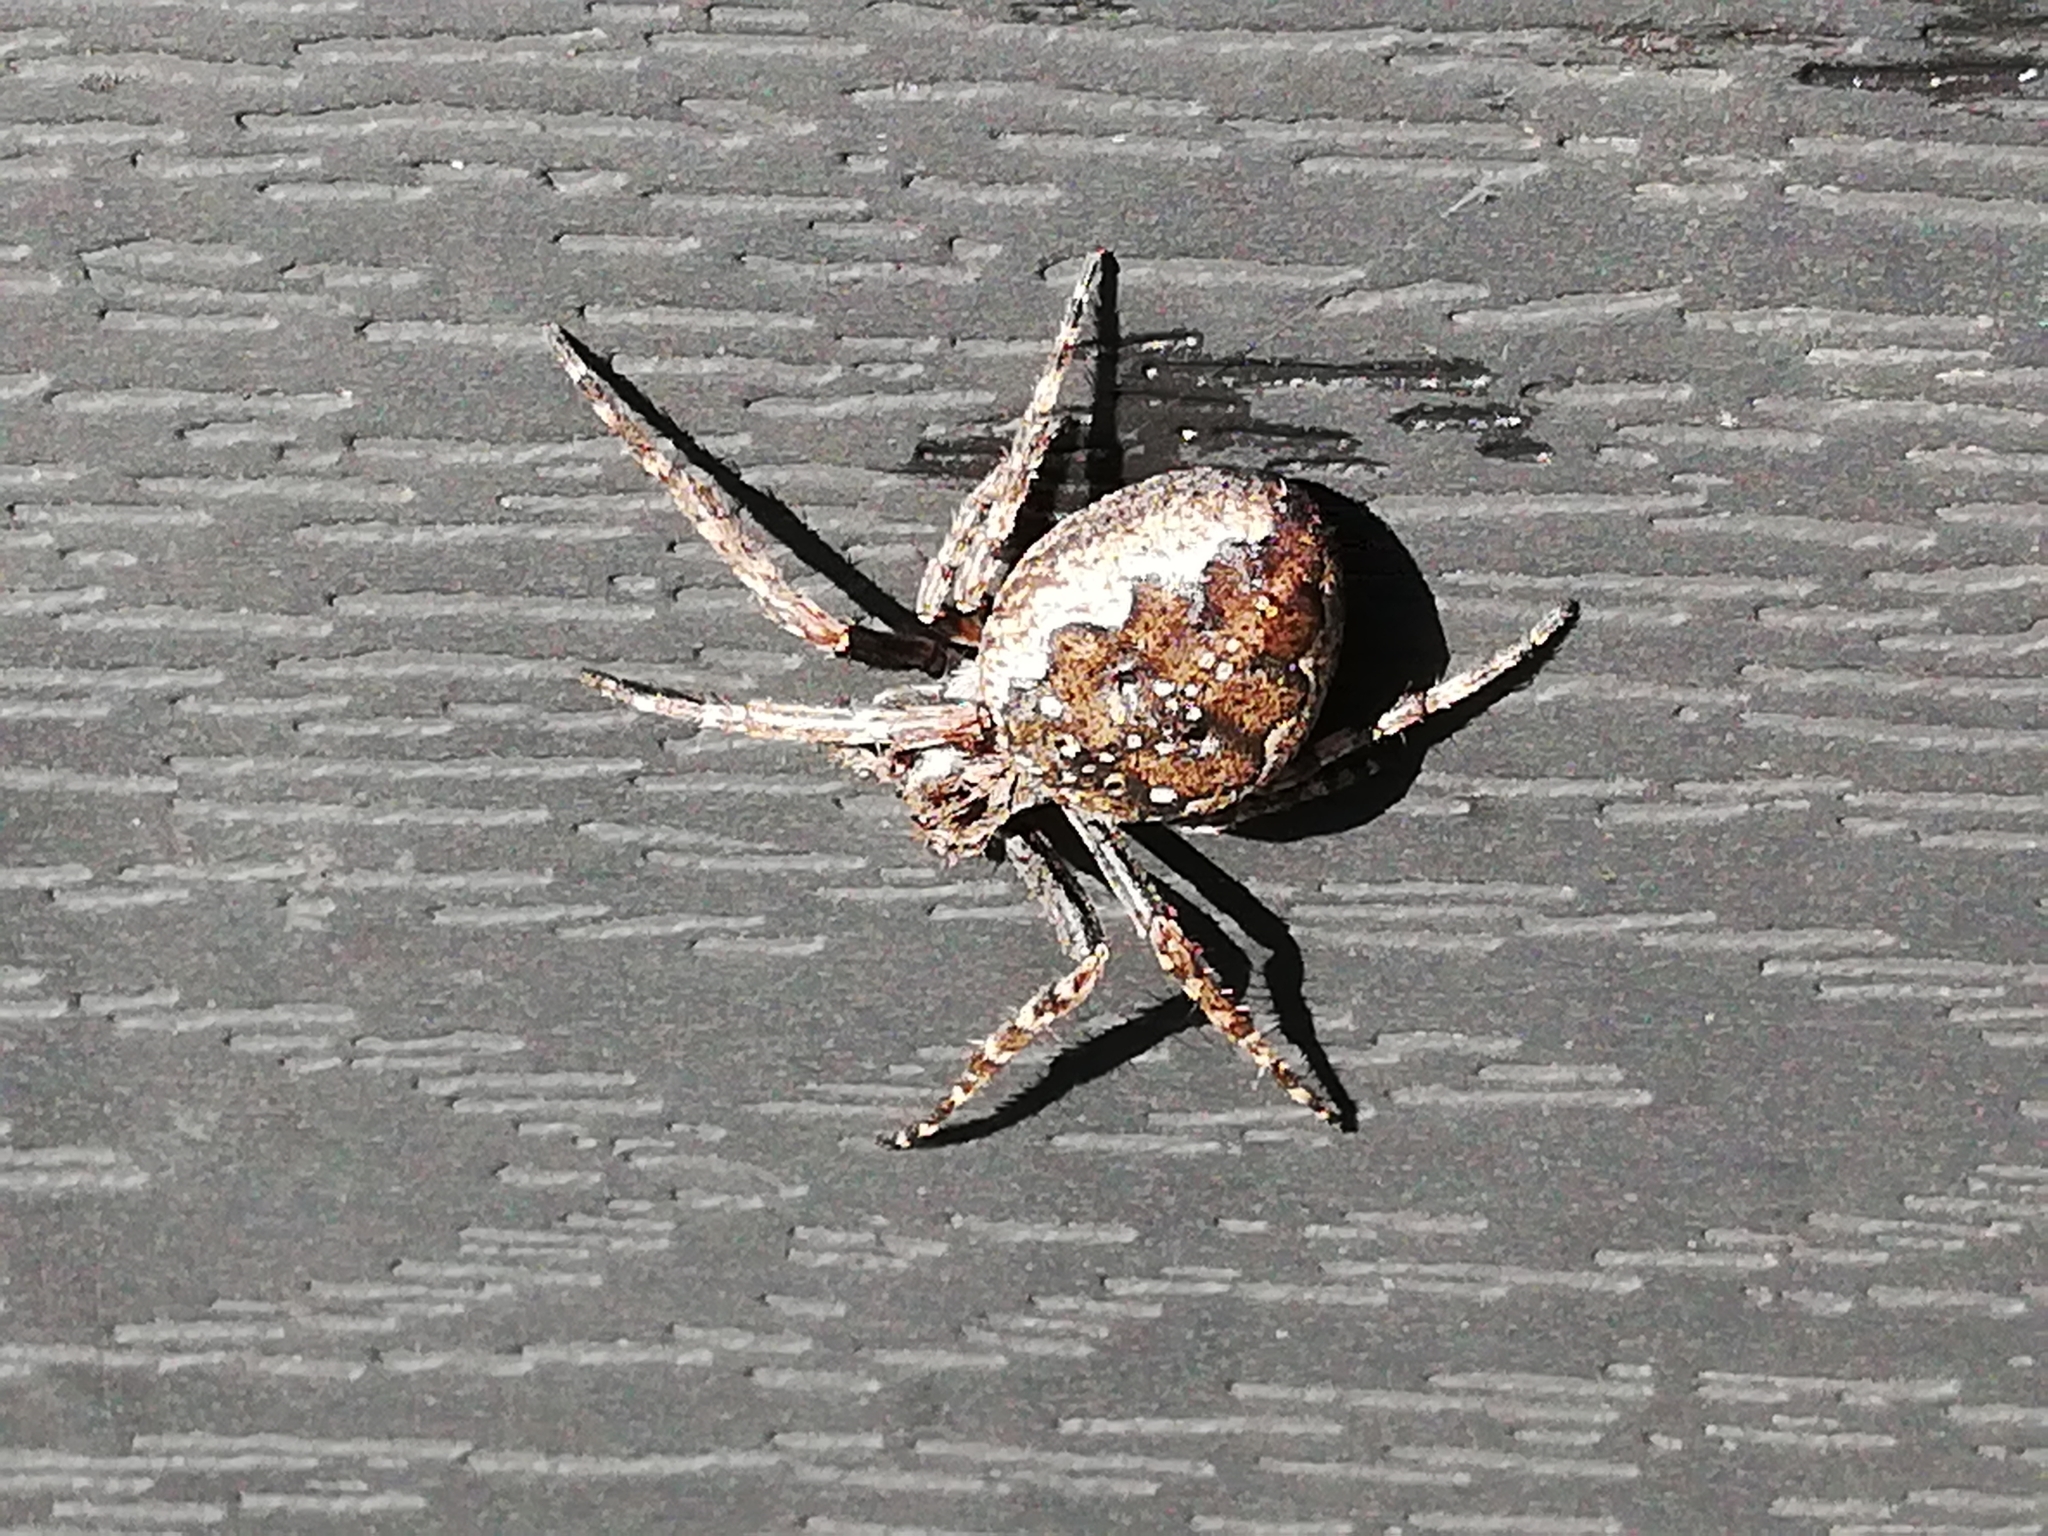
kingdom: Animalia
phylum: Arthropoda
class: Arachnida
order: Araneae
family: Araneidae
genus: Nuctenea
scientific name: Nuctenea umbratica
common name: Toad spider
